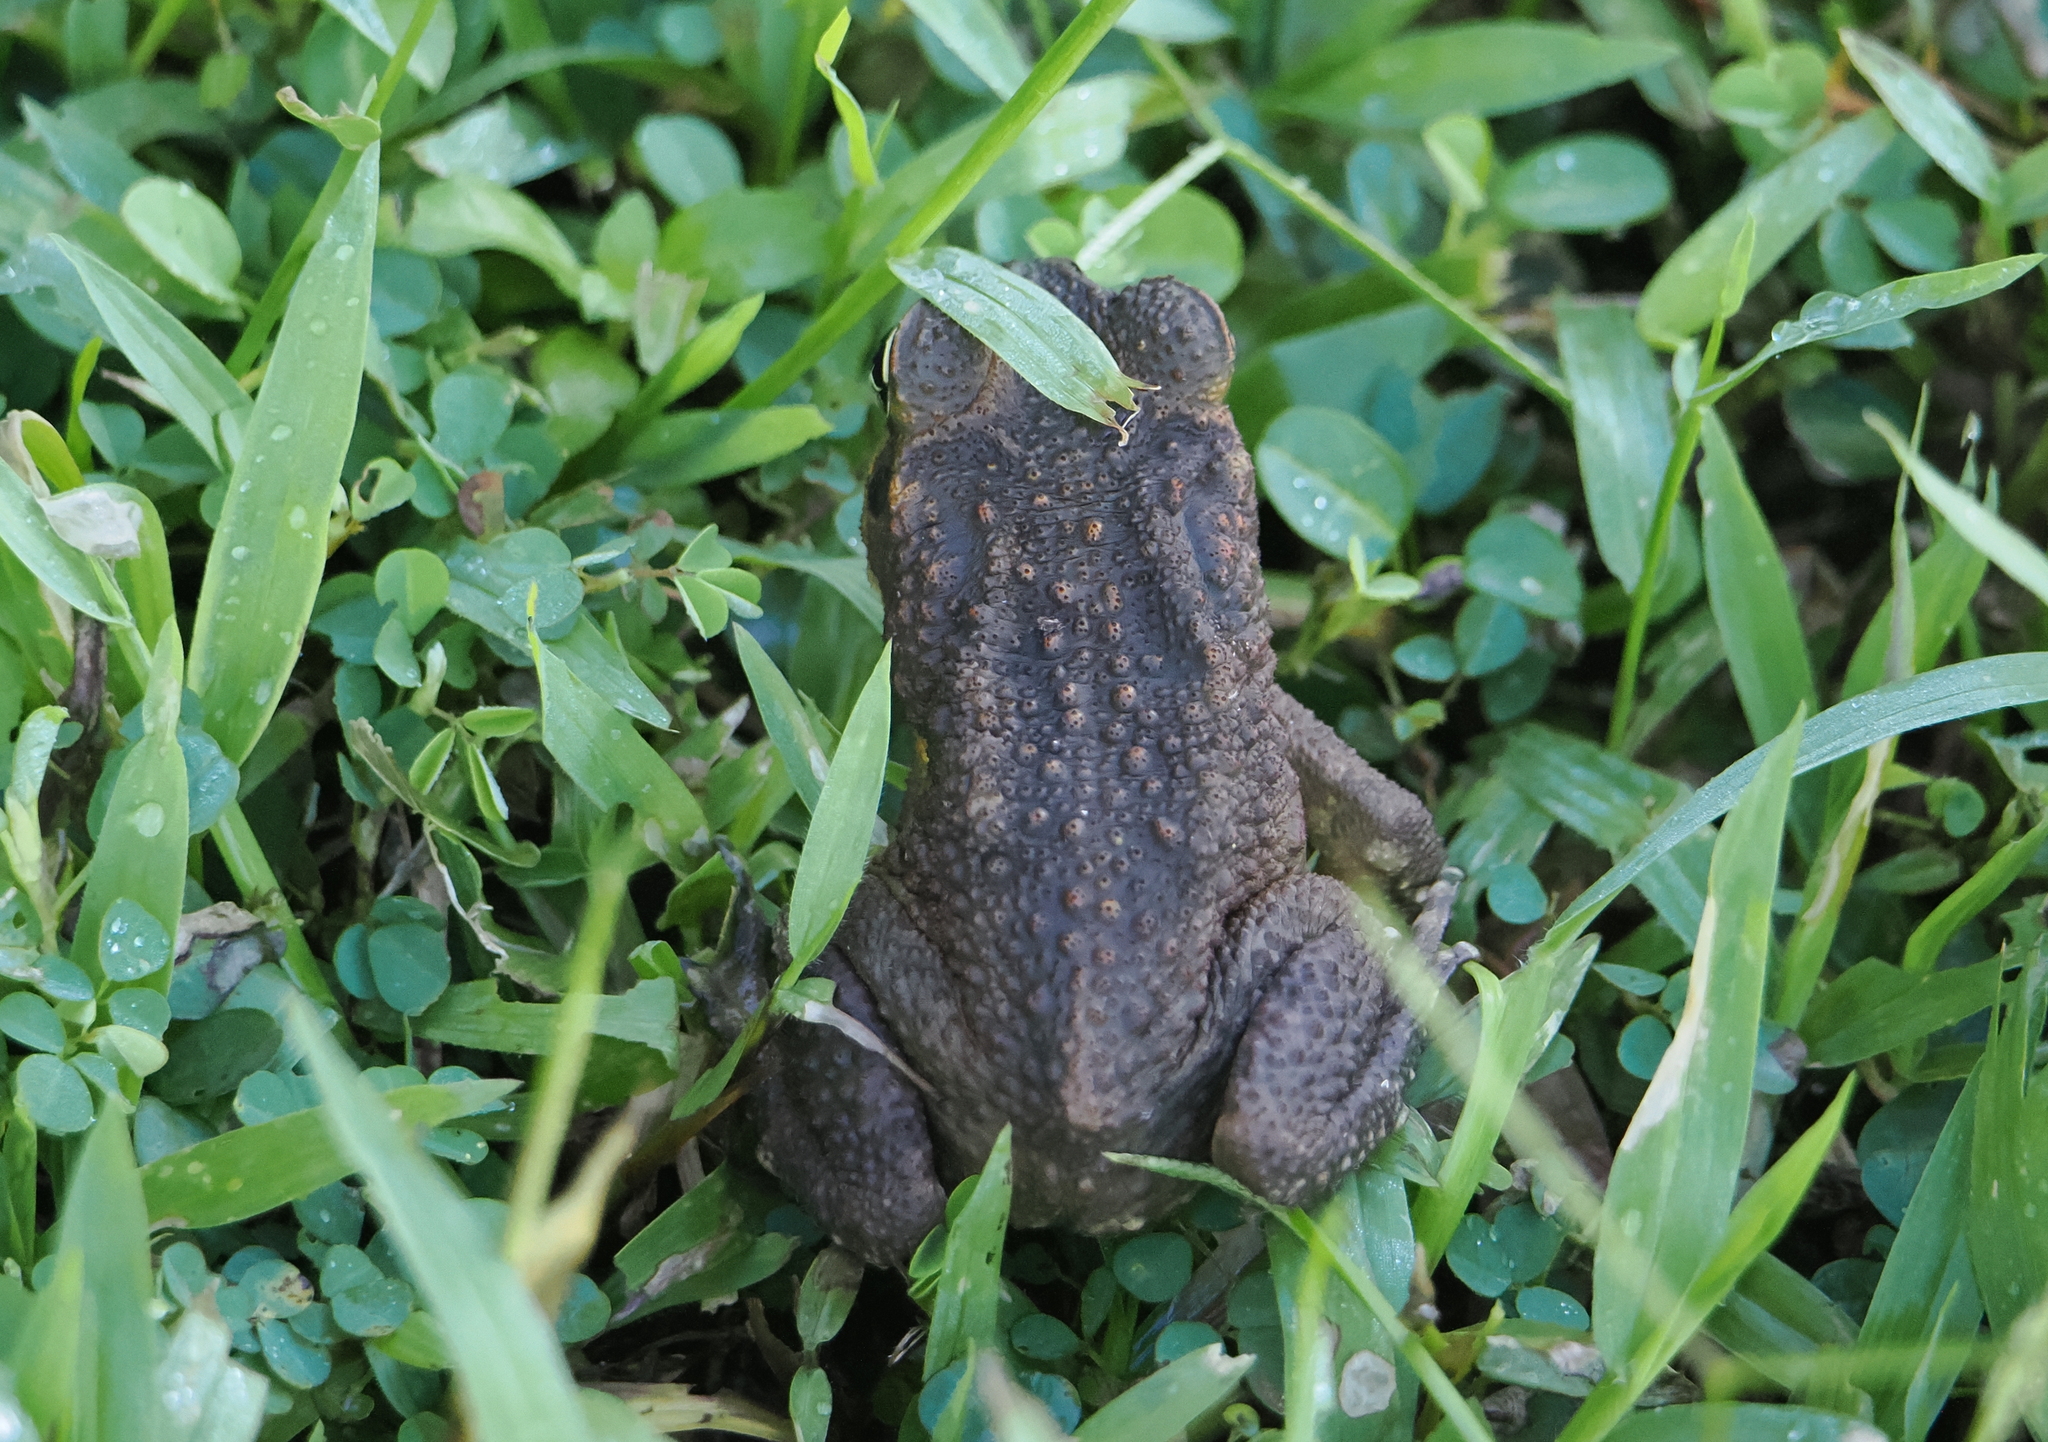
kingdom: Animalia
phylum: Chordata
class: Amphibia
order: Anura
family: Bufonidae
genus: Rhinella
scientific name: Rhinella marina
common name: Cane toad
